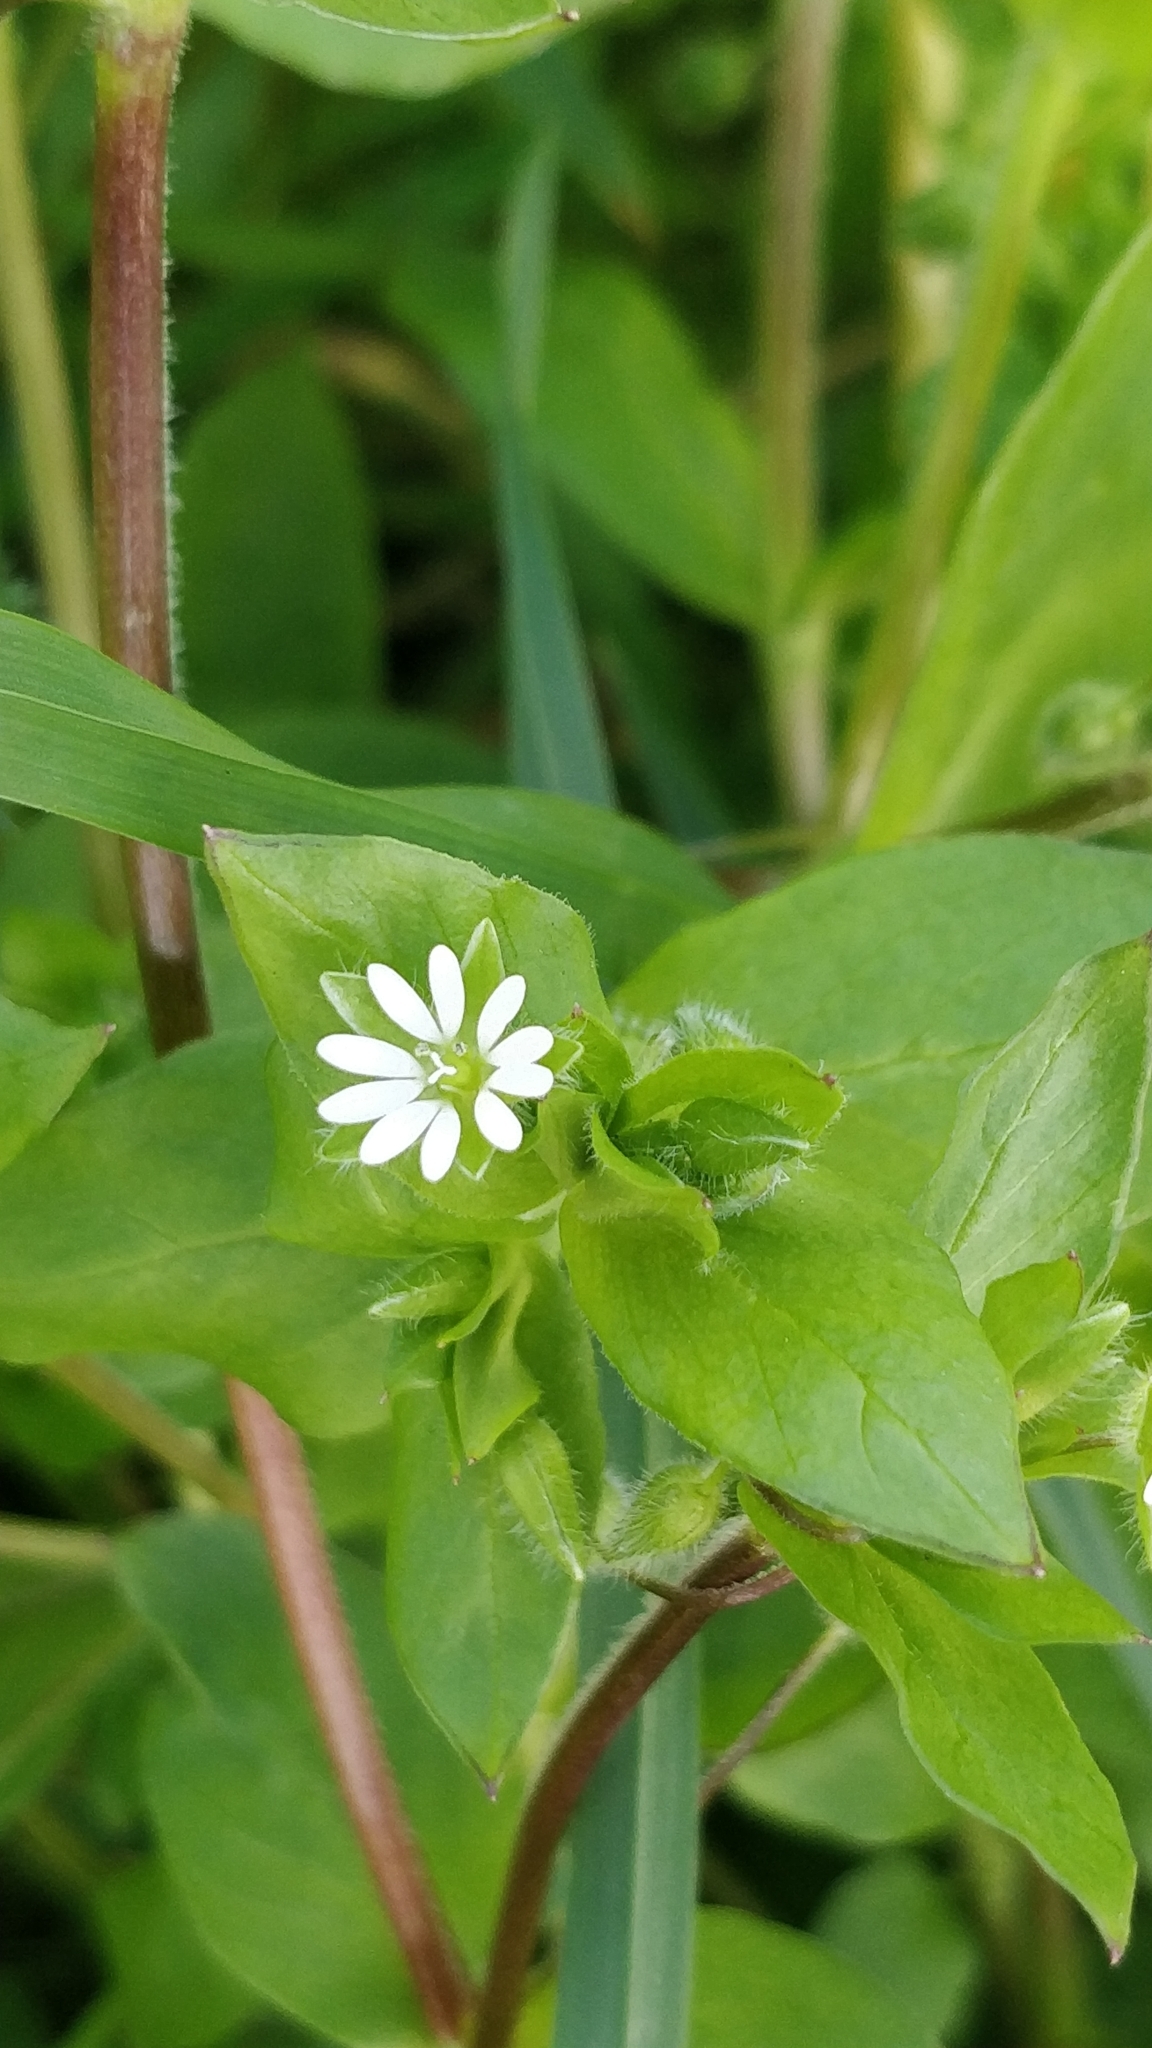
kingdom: Plantae
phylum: Tracheophyta
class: Magnoliopsida
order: Caryophyllales
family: Caryophyllaceae
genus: Stellaria
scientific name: Stellaria media
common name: Common chickweed
